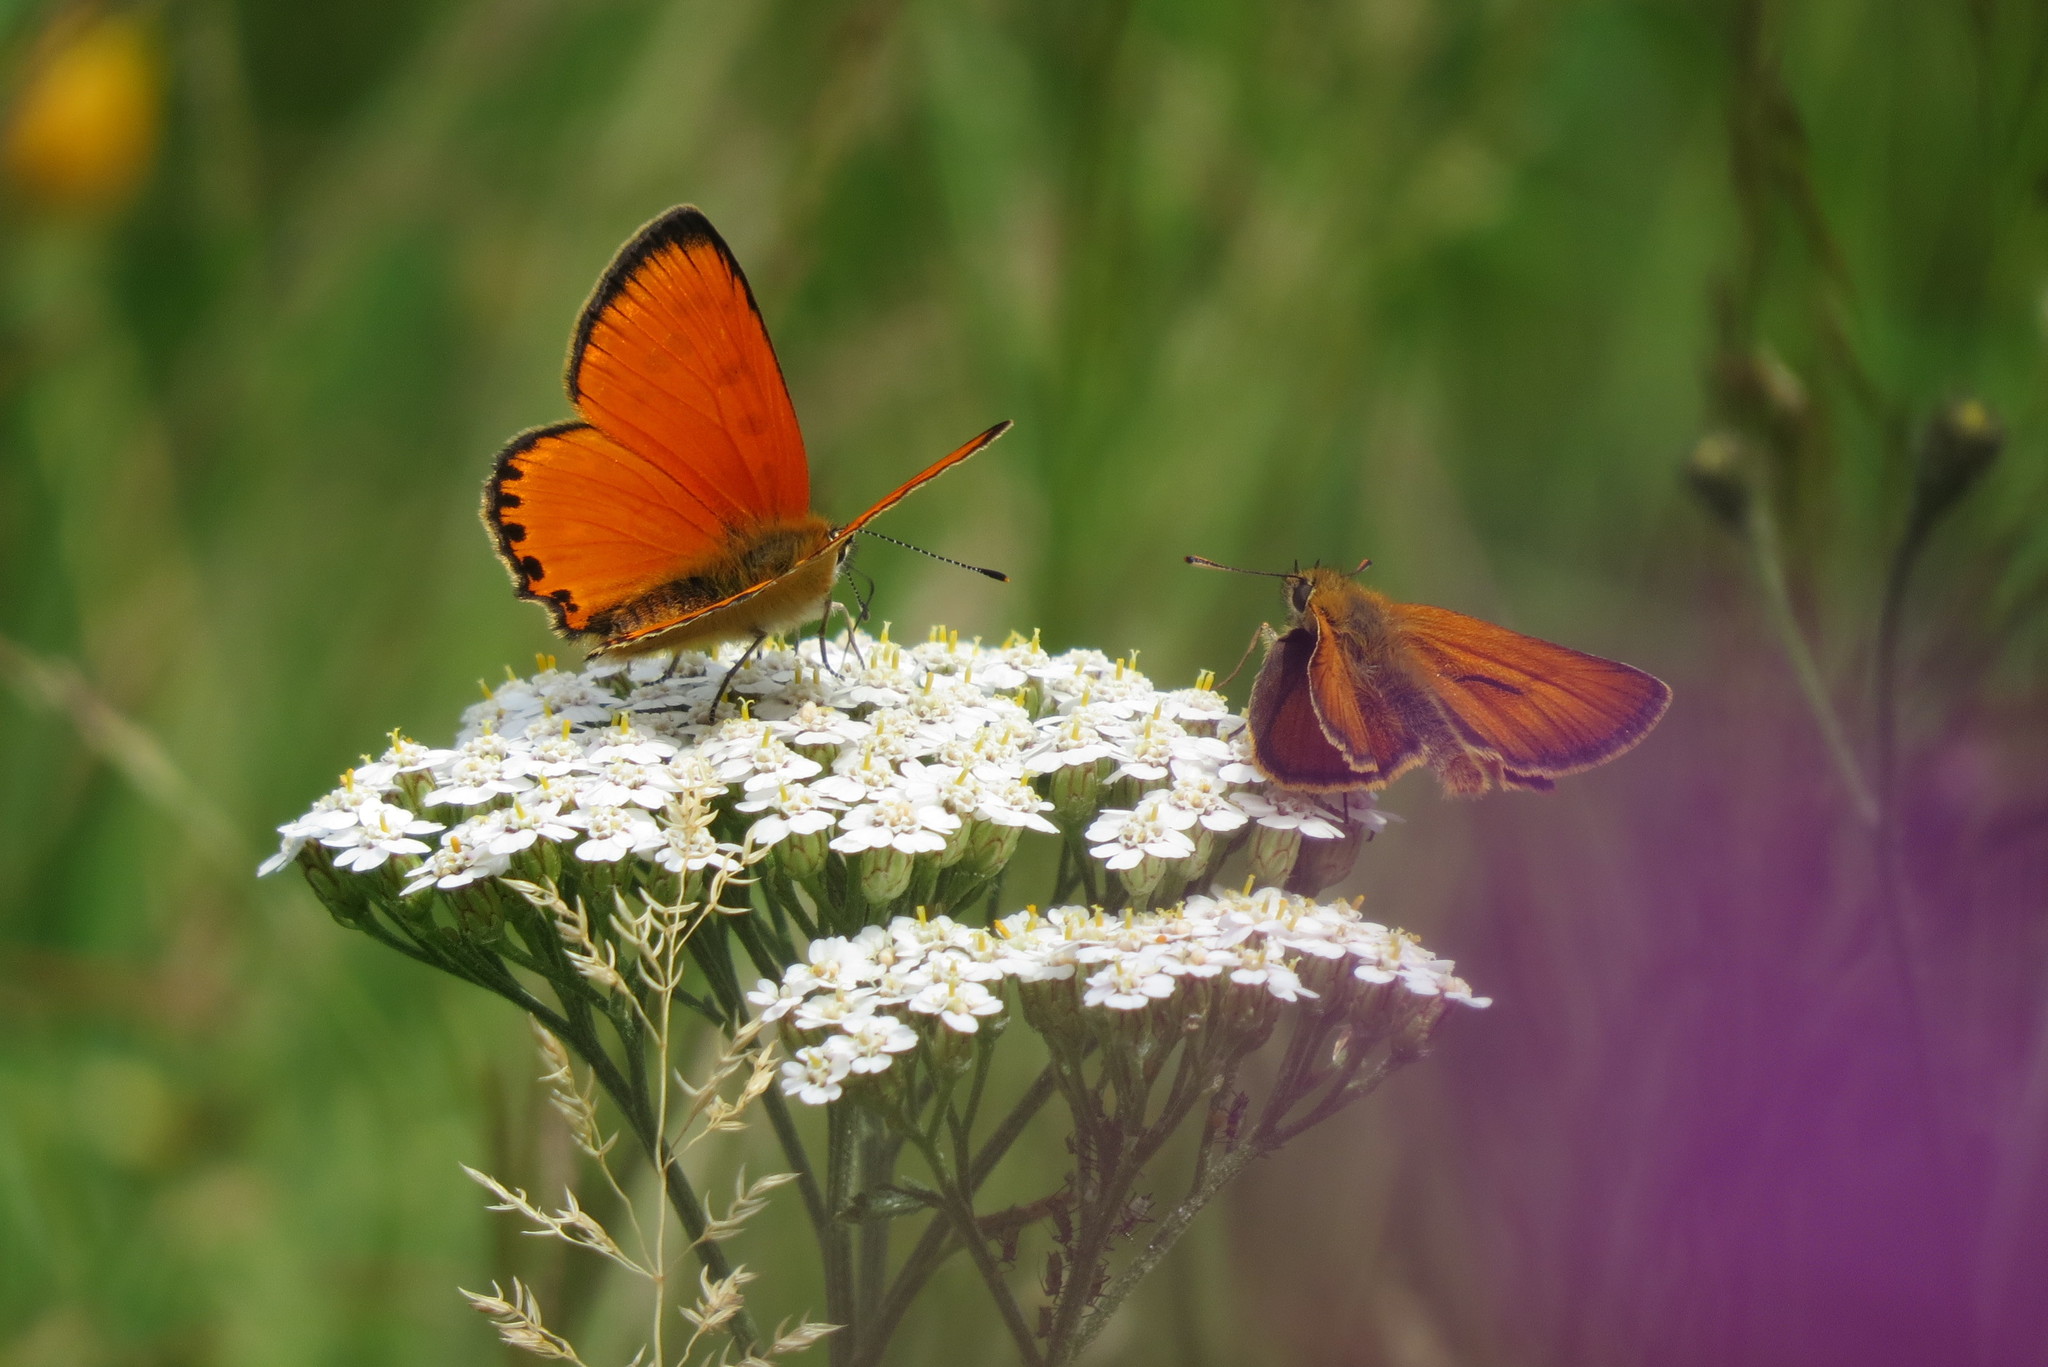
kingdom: Animalia
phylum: Arthropoda
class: Insecta
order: Lepidoptera
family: Lycaenidae
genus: Lycaena
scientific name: Lycaena virgaureae
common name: Scarce copper
